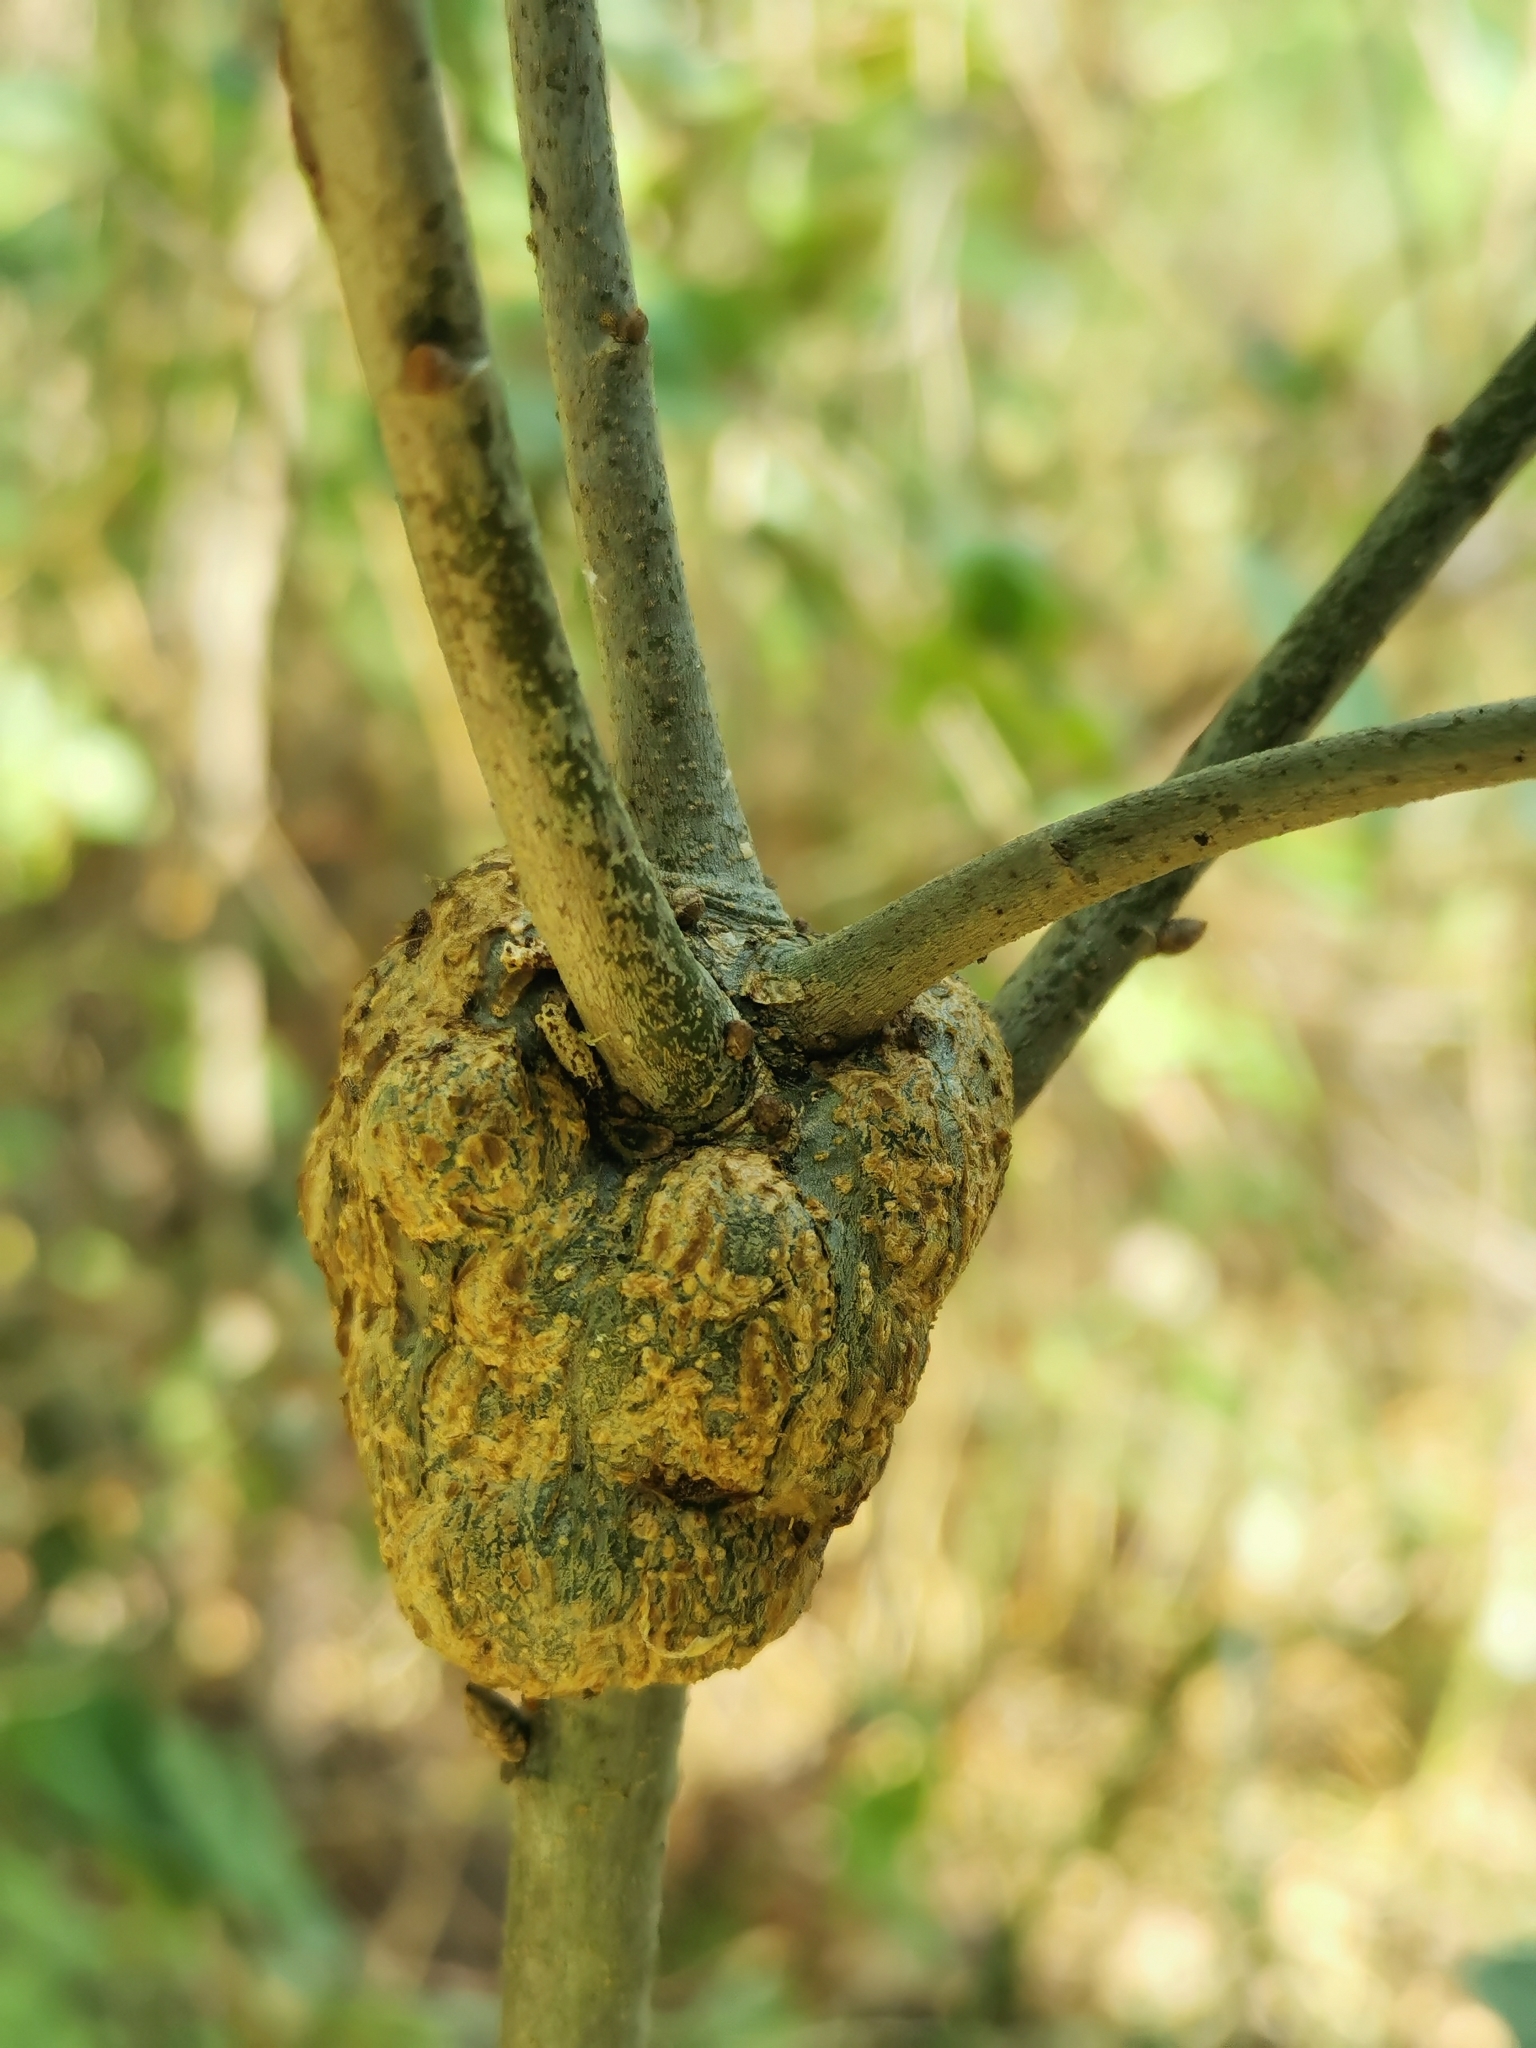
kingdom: Animalia
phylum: Arthropoda
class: Insecta
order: Hymenoptera
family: Cynipidae
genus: Callirhytis
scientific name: Callirhytis
